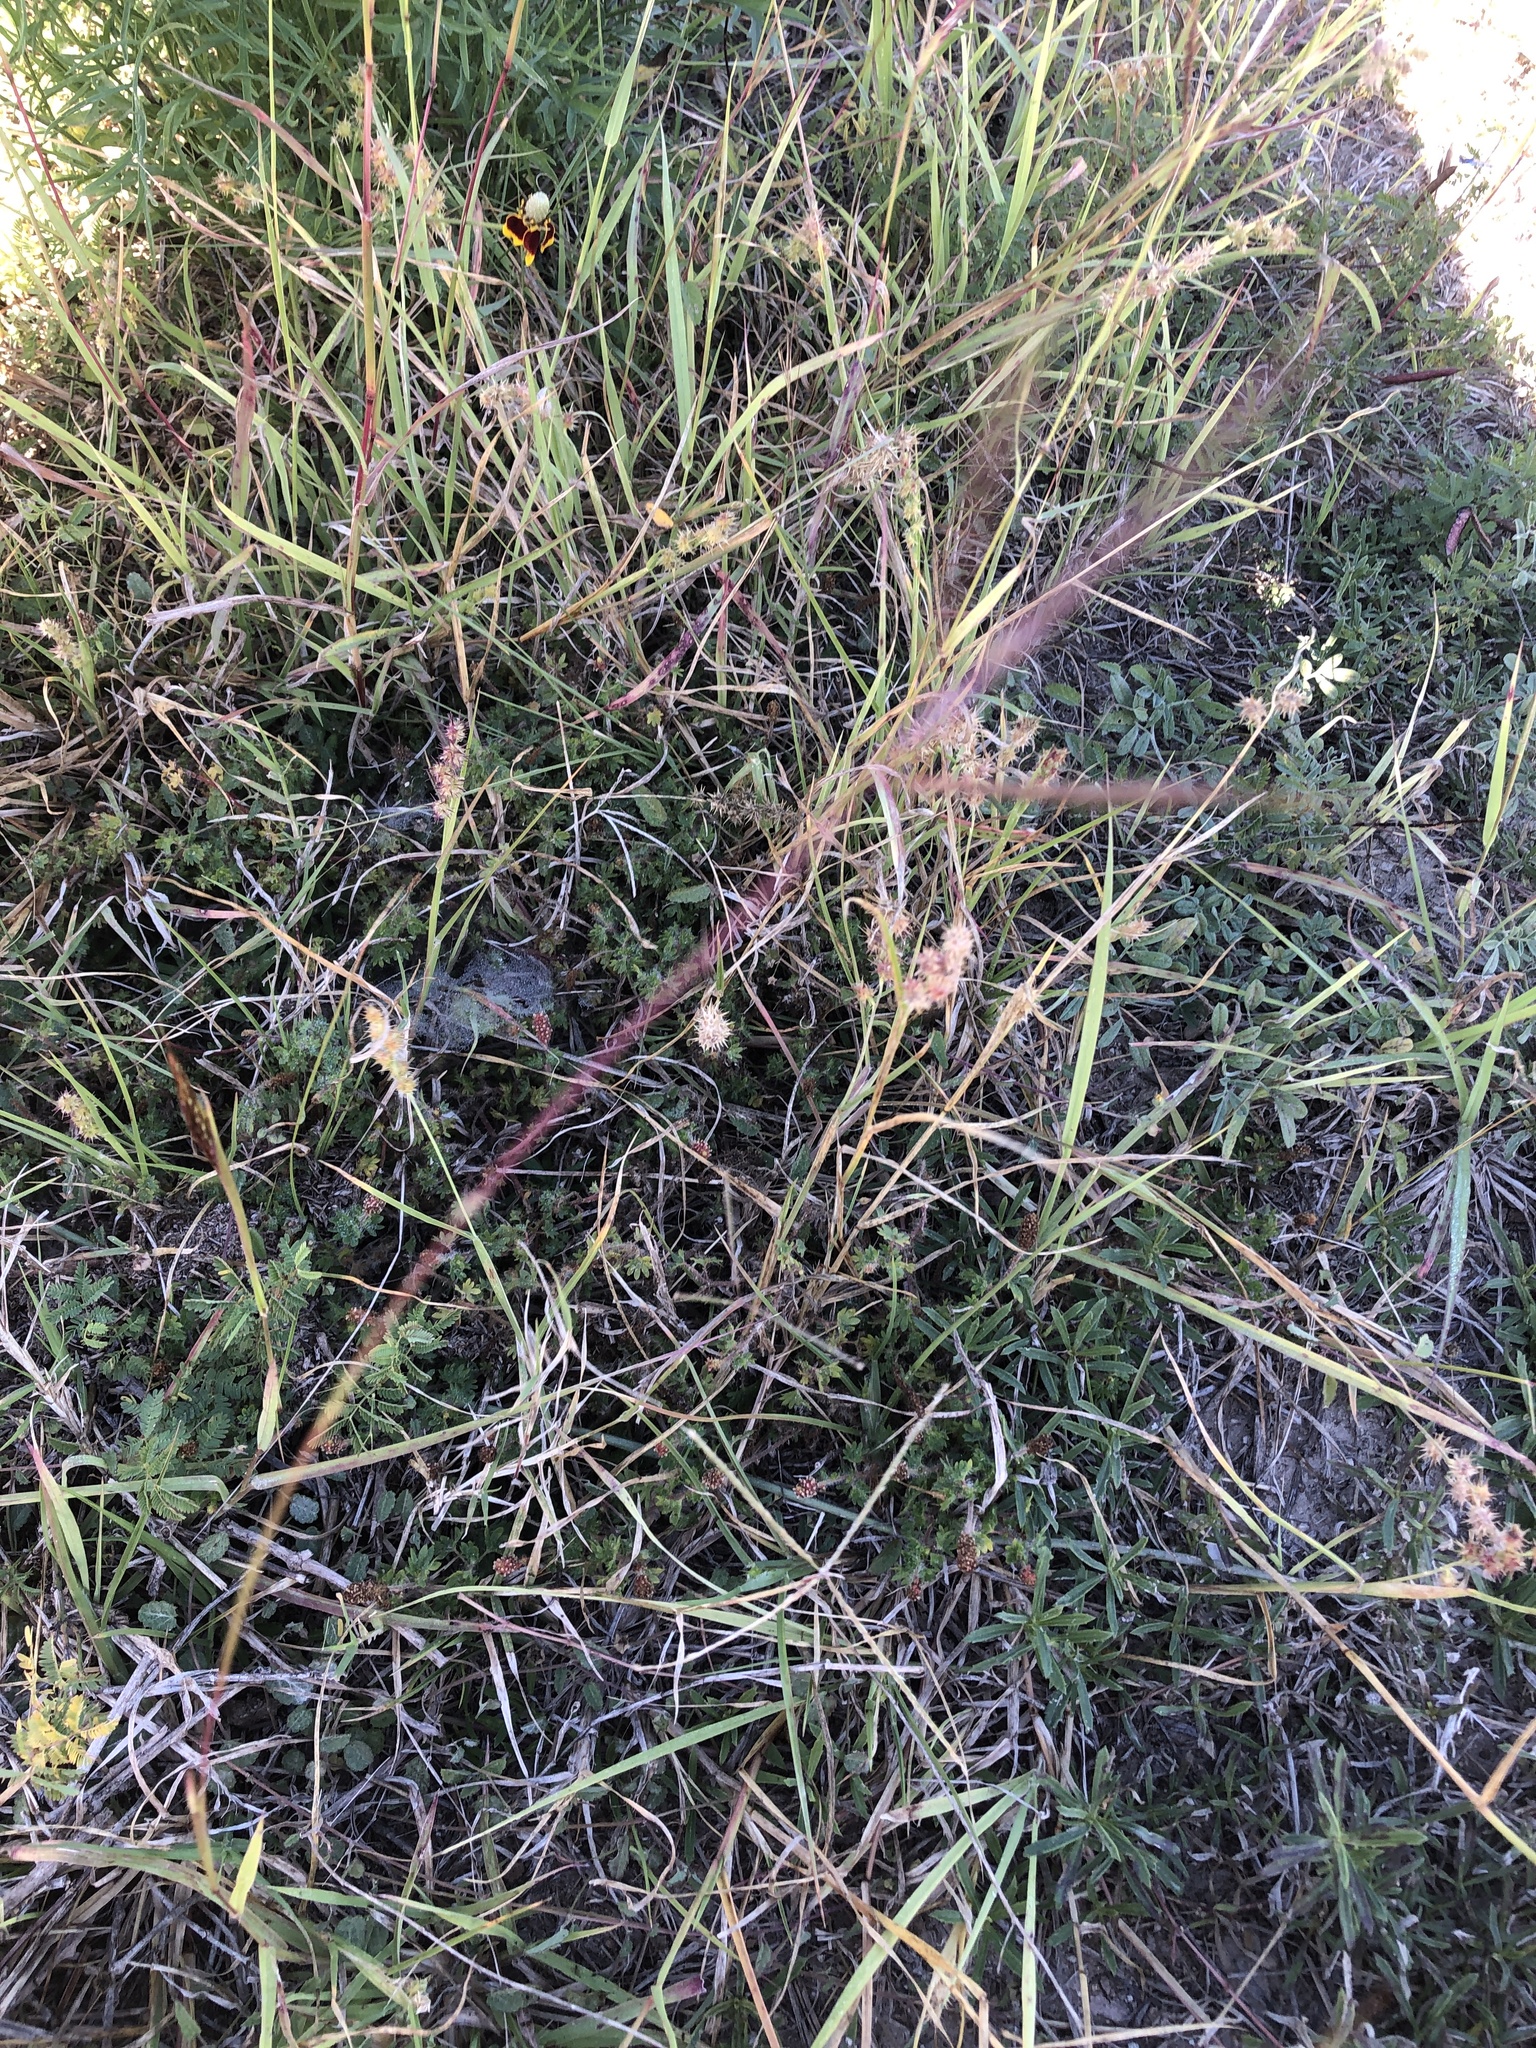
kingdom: Plantae
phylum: Tracheophyta
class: Liliopsida
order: Poales
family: Poaceae
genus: Cenchrus
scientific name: Cenchrus spinifex
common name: Coast sandbur
